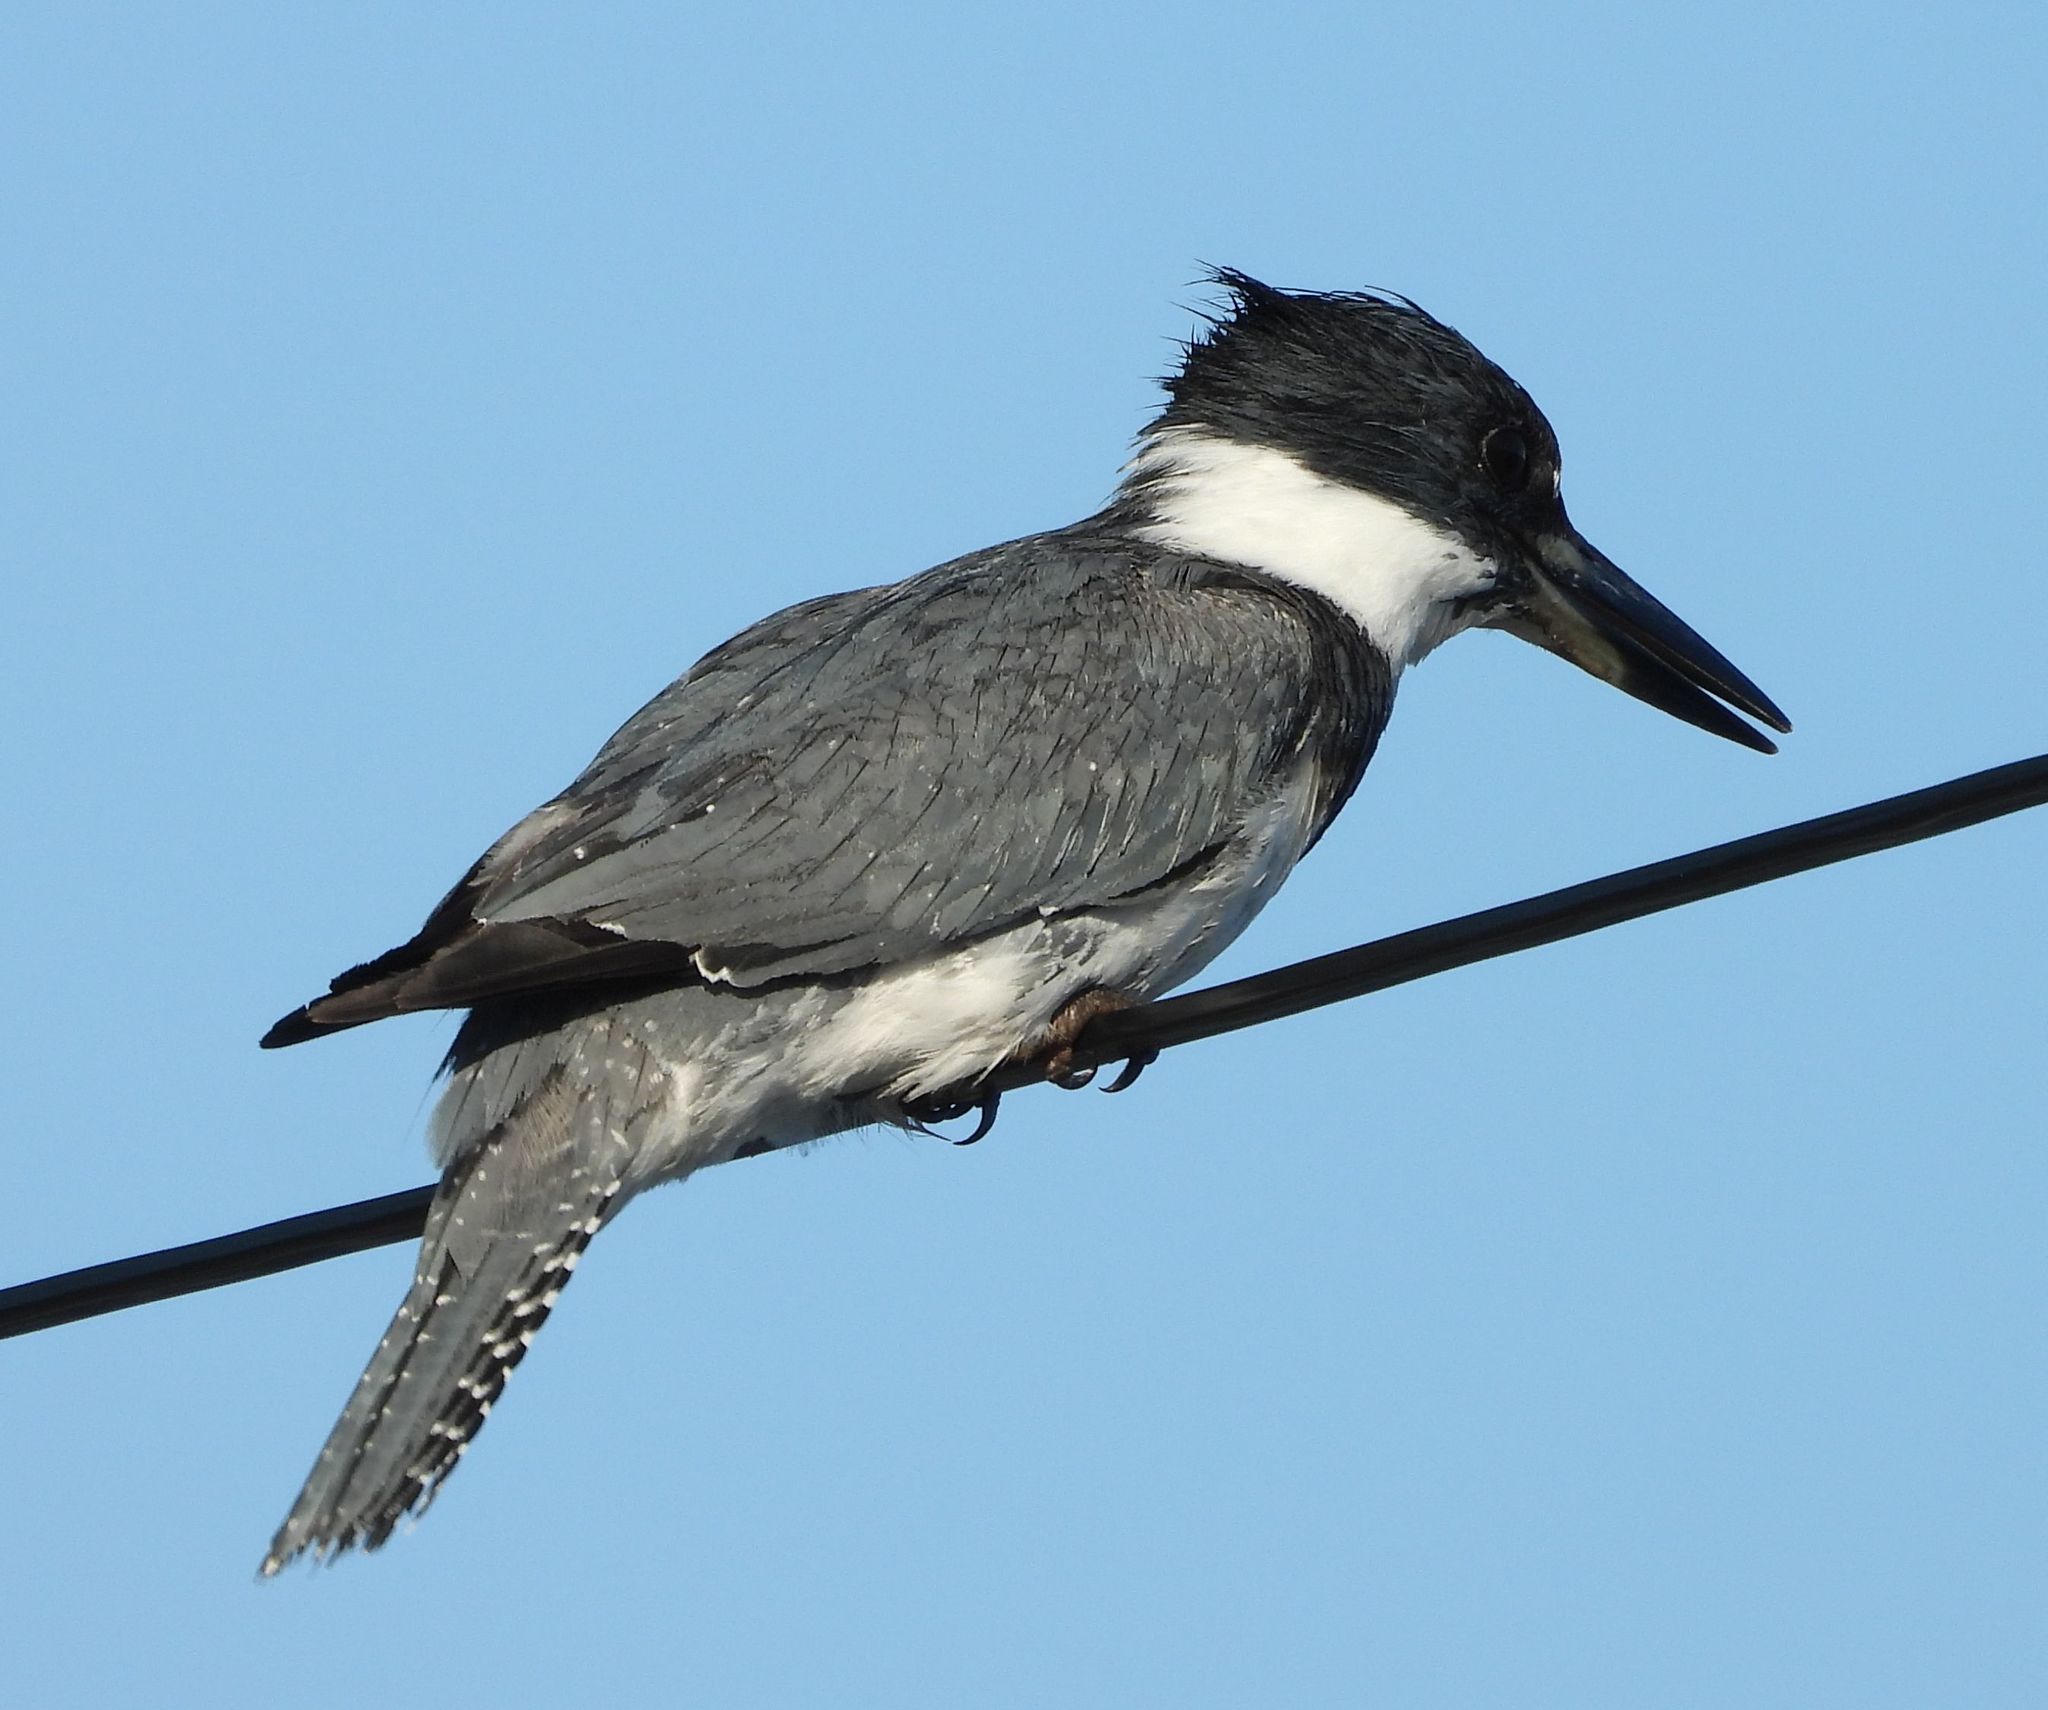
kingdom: Animalia
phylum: Chordata
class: Aves
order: Coraciiformes
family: Alcedinidae
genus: Megaceryle
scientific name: Megaceryle alcyon
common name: Belted kingfisher
